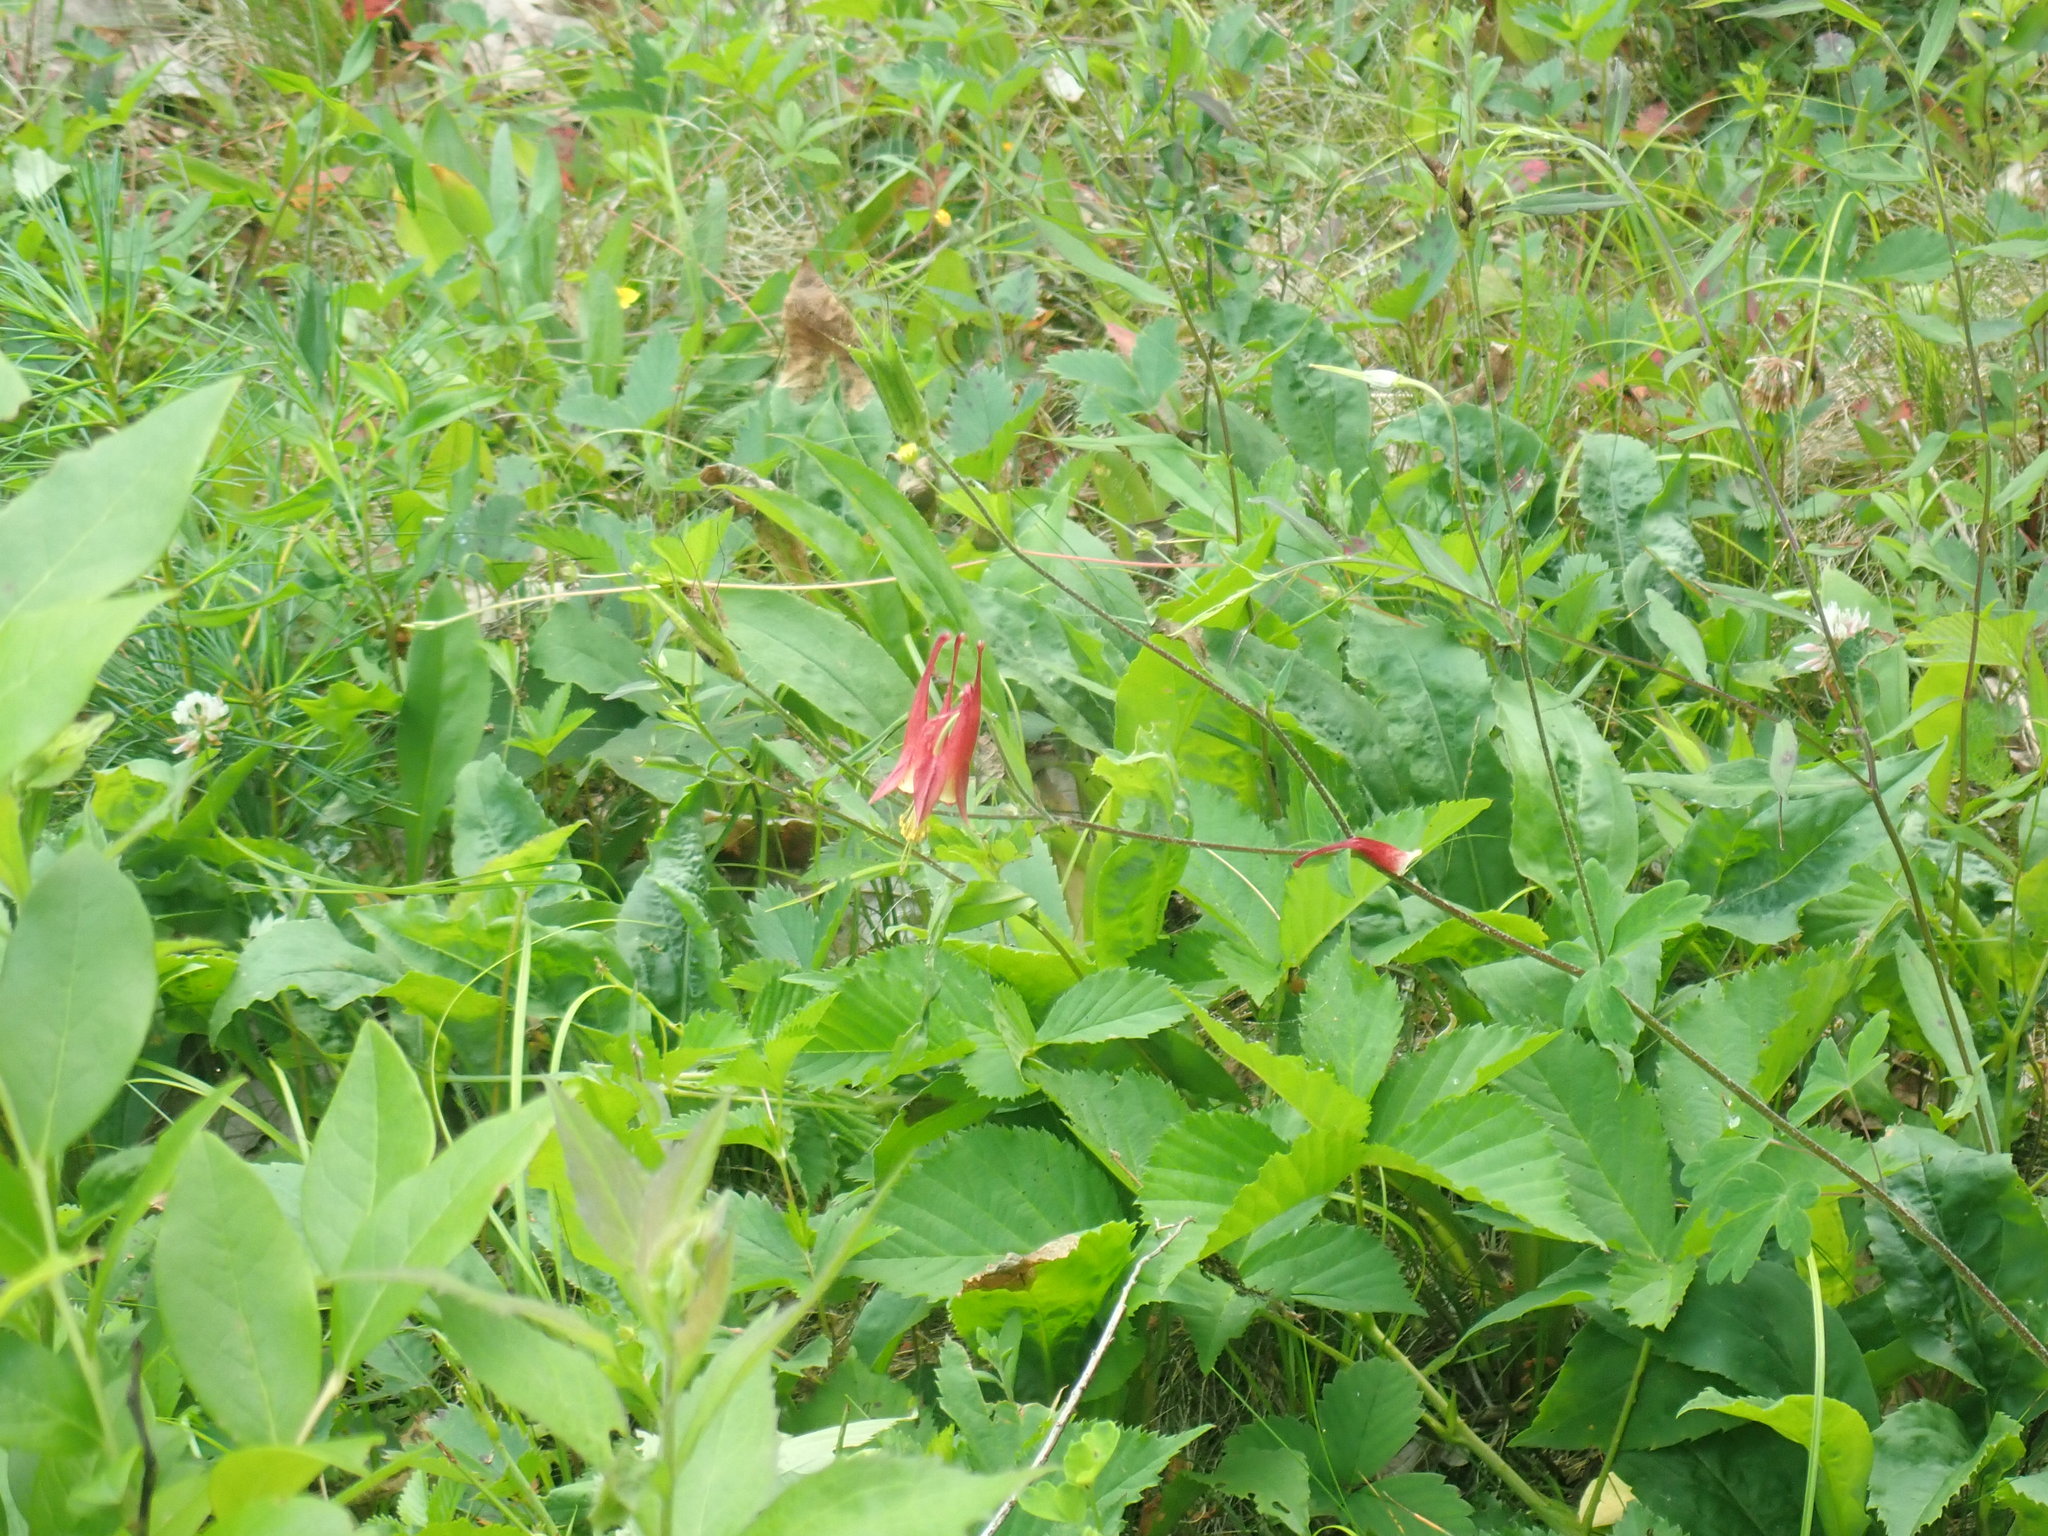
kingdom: Plantae
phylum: Tracheophyta
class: Magnoliopsida
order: Ranunculales
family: Ranunculaceae
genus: Aquilegia
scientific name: Aquilegia canadensis
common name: American columbine
